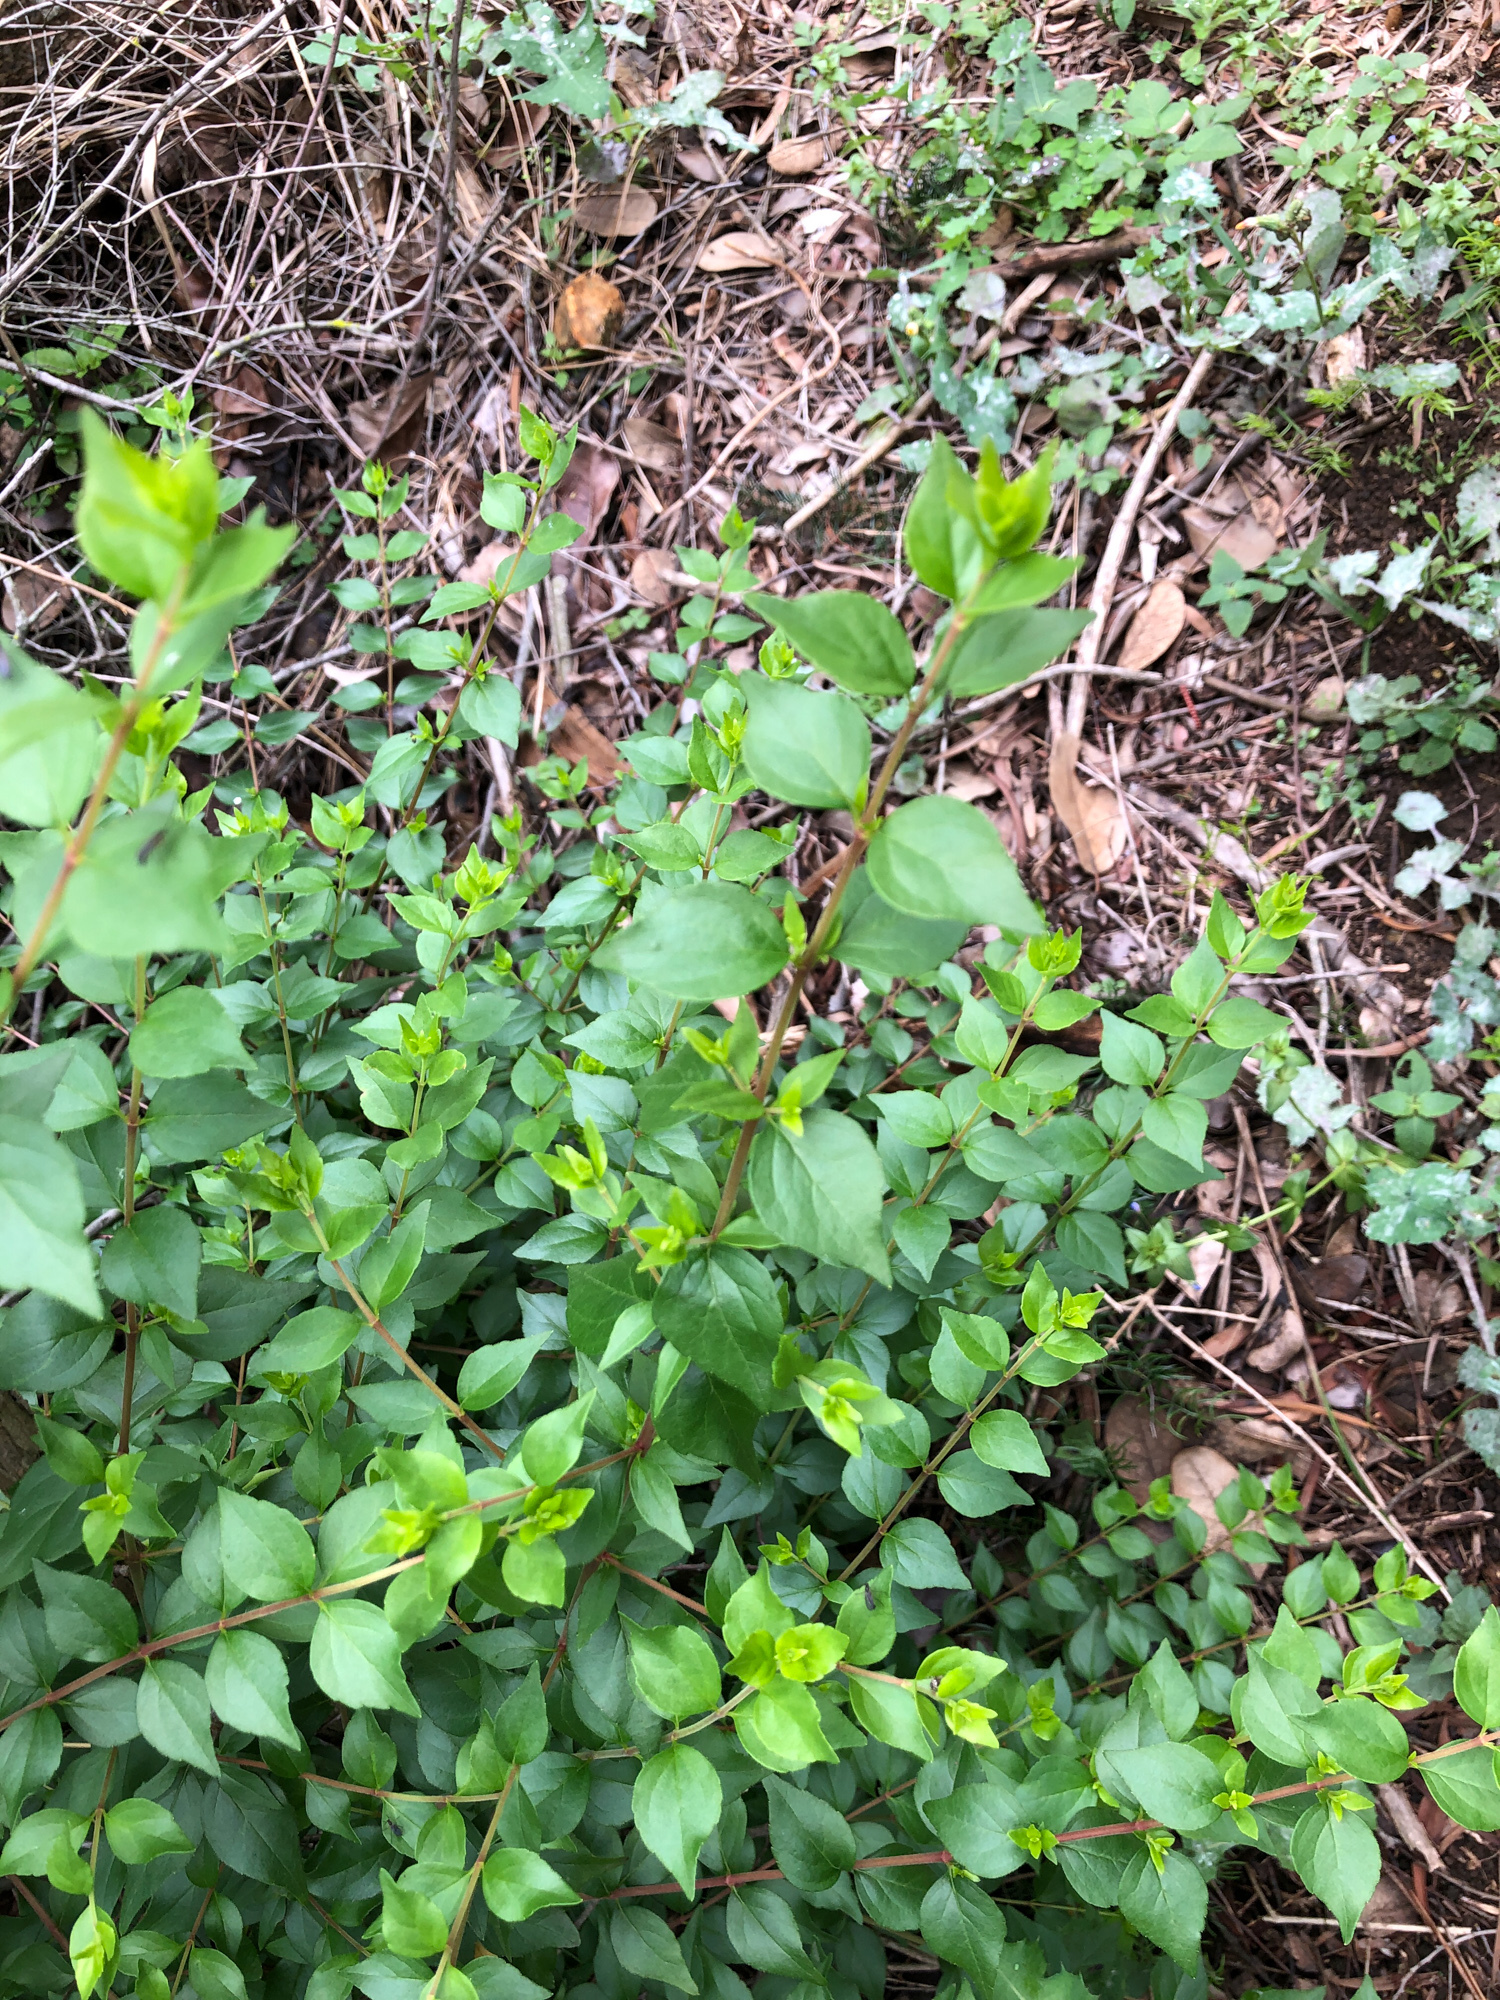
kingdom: Plantae
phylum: Tracheophyta
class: Magnoliopsida
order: Dipsacales
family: Caprifoliaceae
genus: Abelia
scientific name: Abelia chinensis
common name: Chinese abelia
